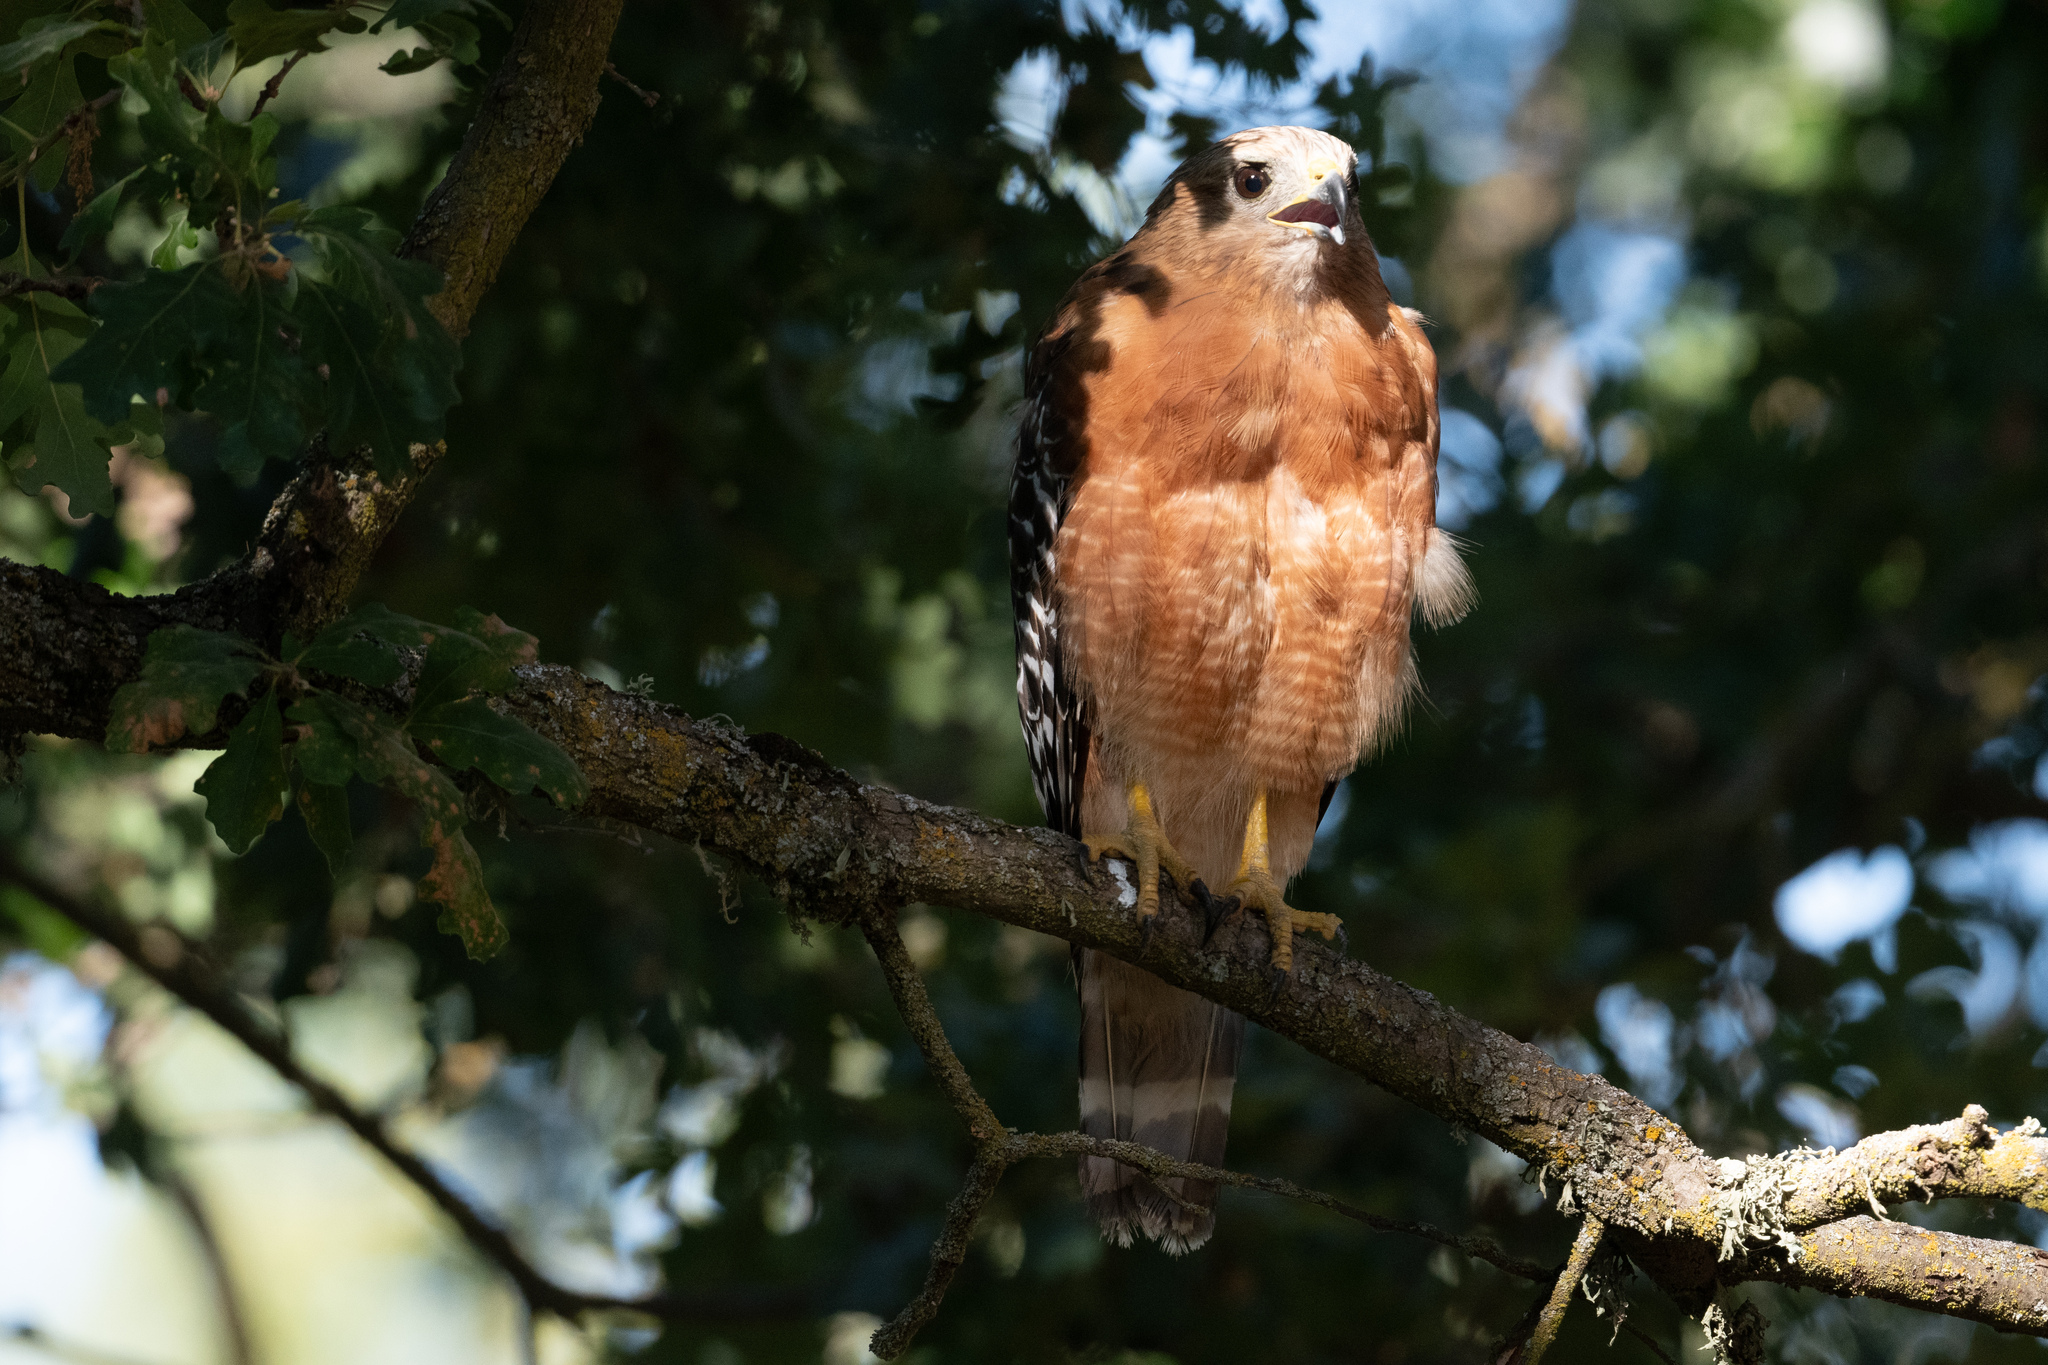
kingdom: Animalia
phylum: Chordata
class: Aves
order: Accipitriformes
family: Accipitridae
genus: Buteo
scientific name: Buteo lineatus
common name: Red-shouldered hawk
